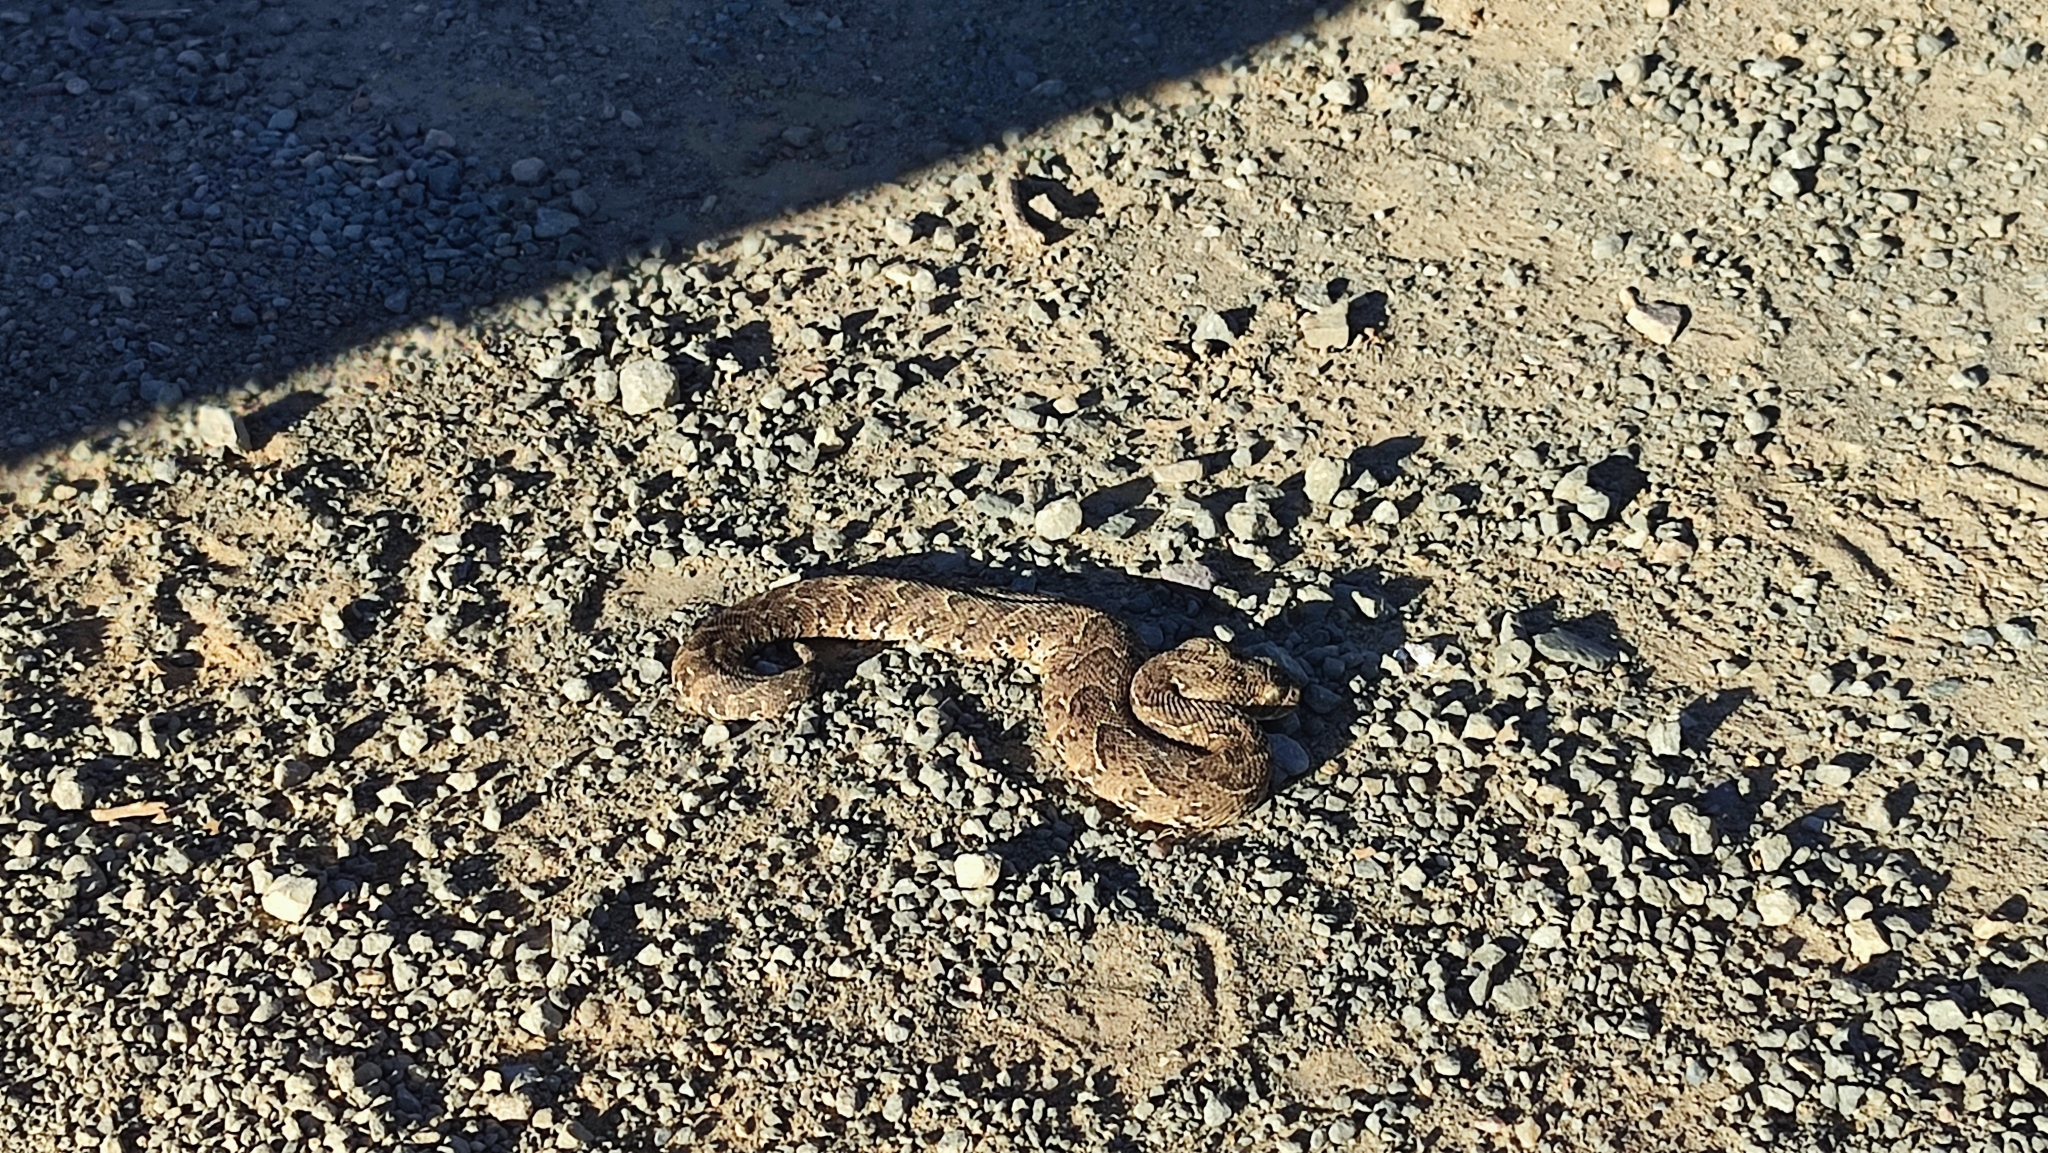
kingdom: Animalia
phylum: Chordata
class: Squamata
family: Viperidae
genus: Bitis
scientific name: Bitis arietans
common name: Puff adder
